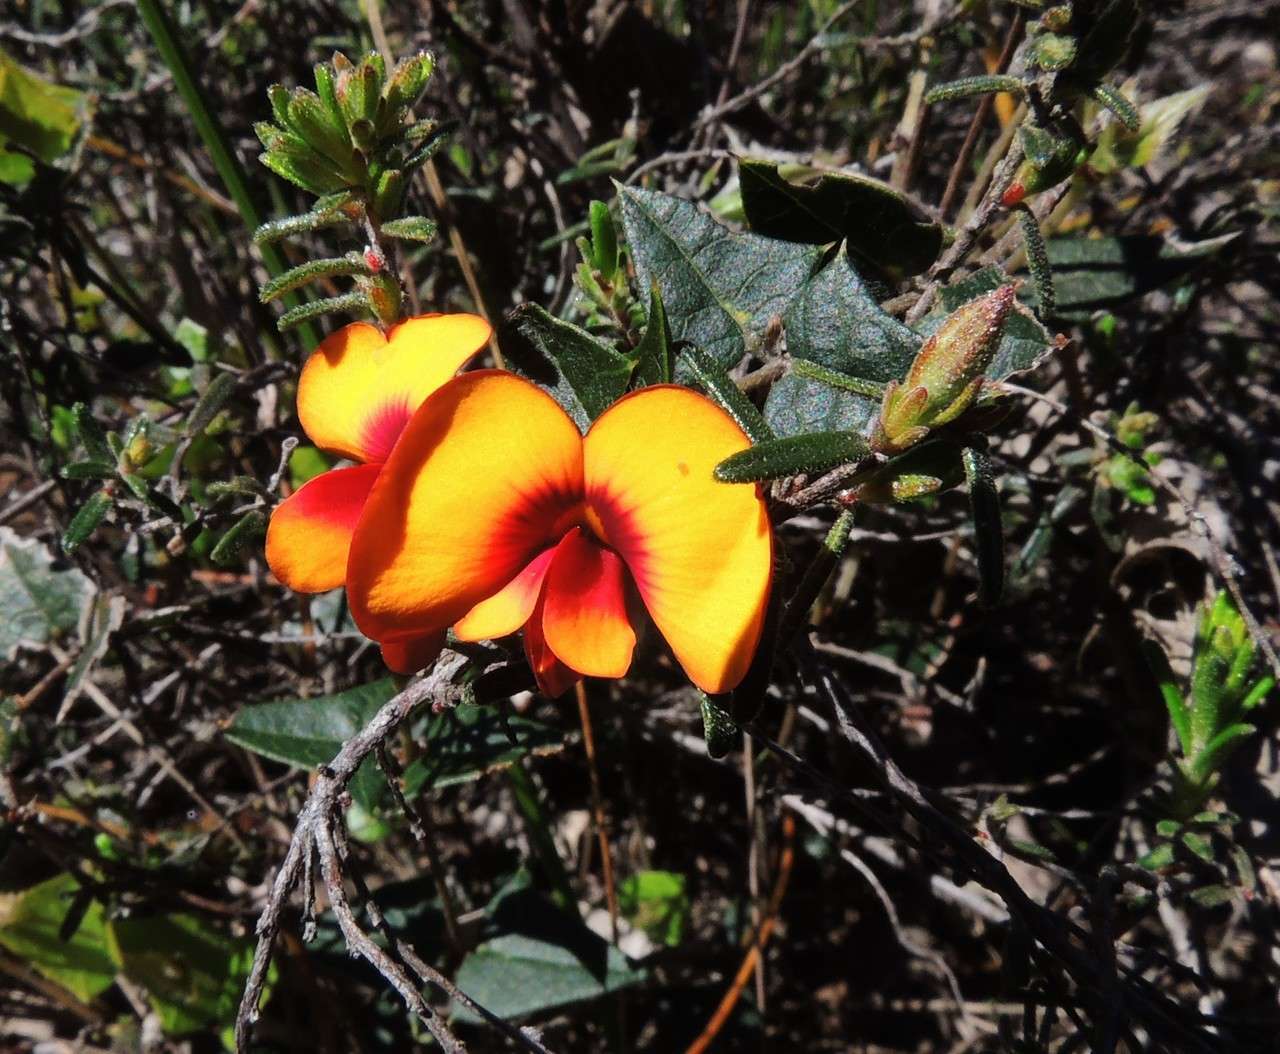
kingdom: Plantae
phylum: Tracheophyta
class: Magnoliopsida
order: Fabales
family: Fabaceae
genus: Platylobium
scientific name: Platylobium obtusangulum
